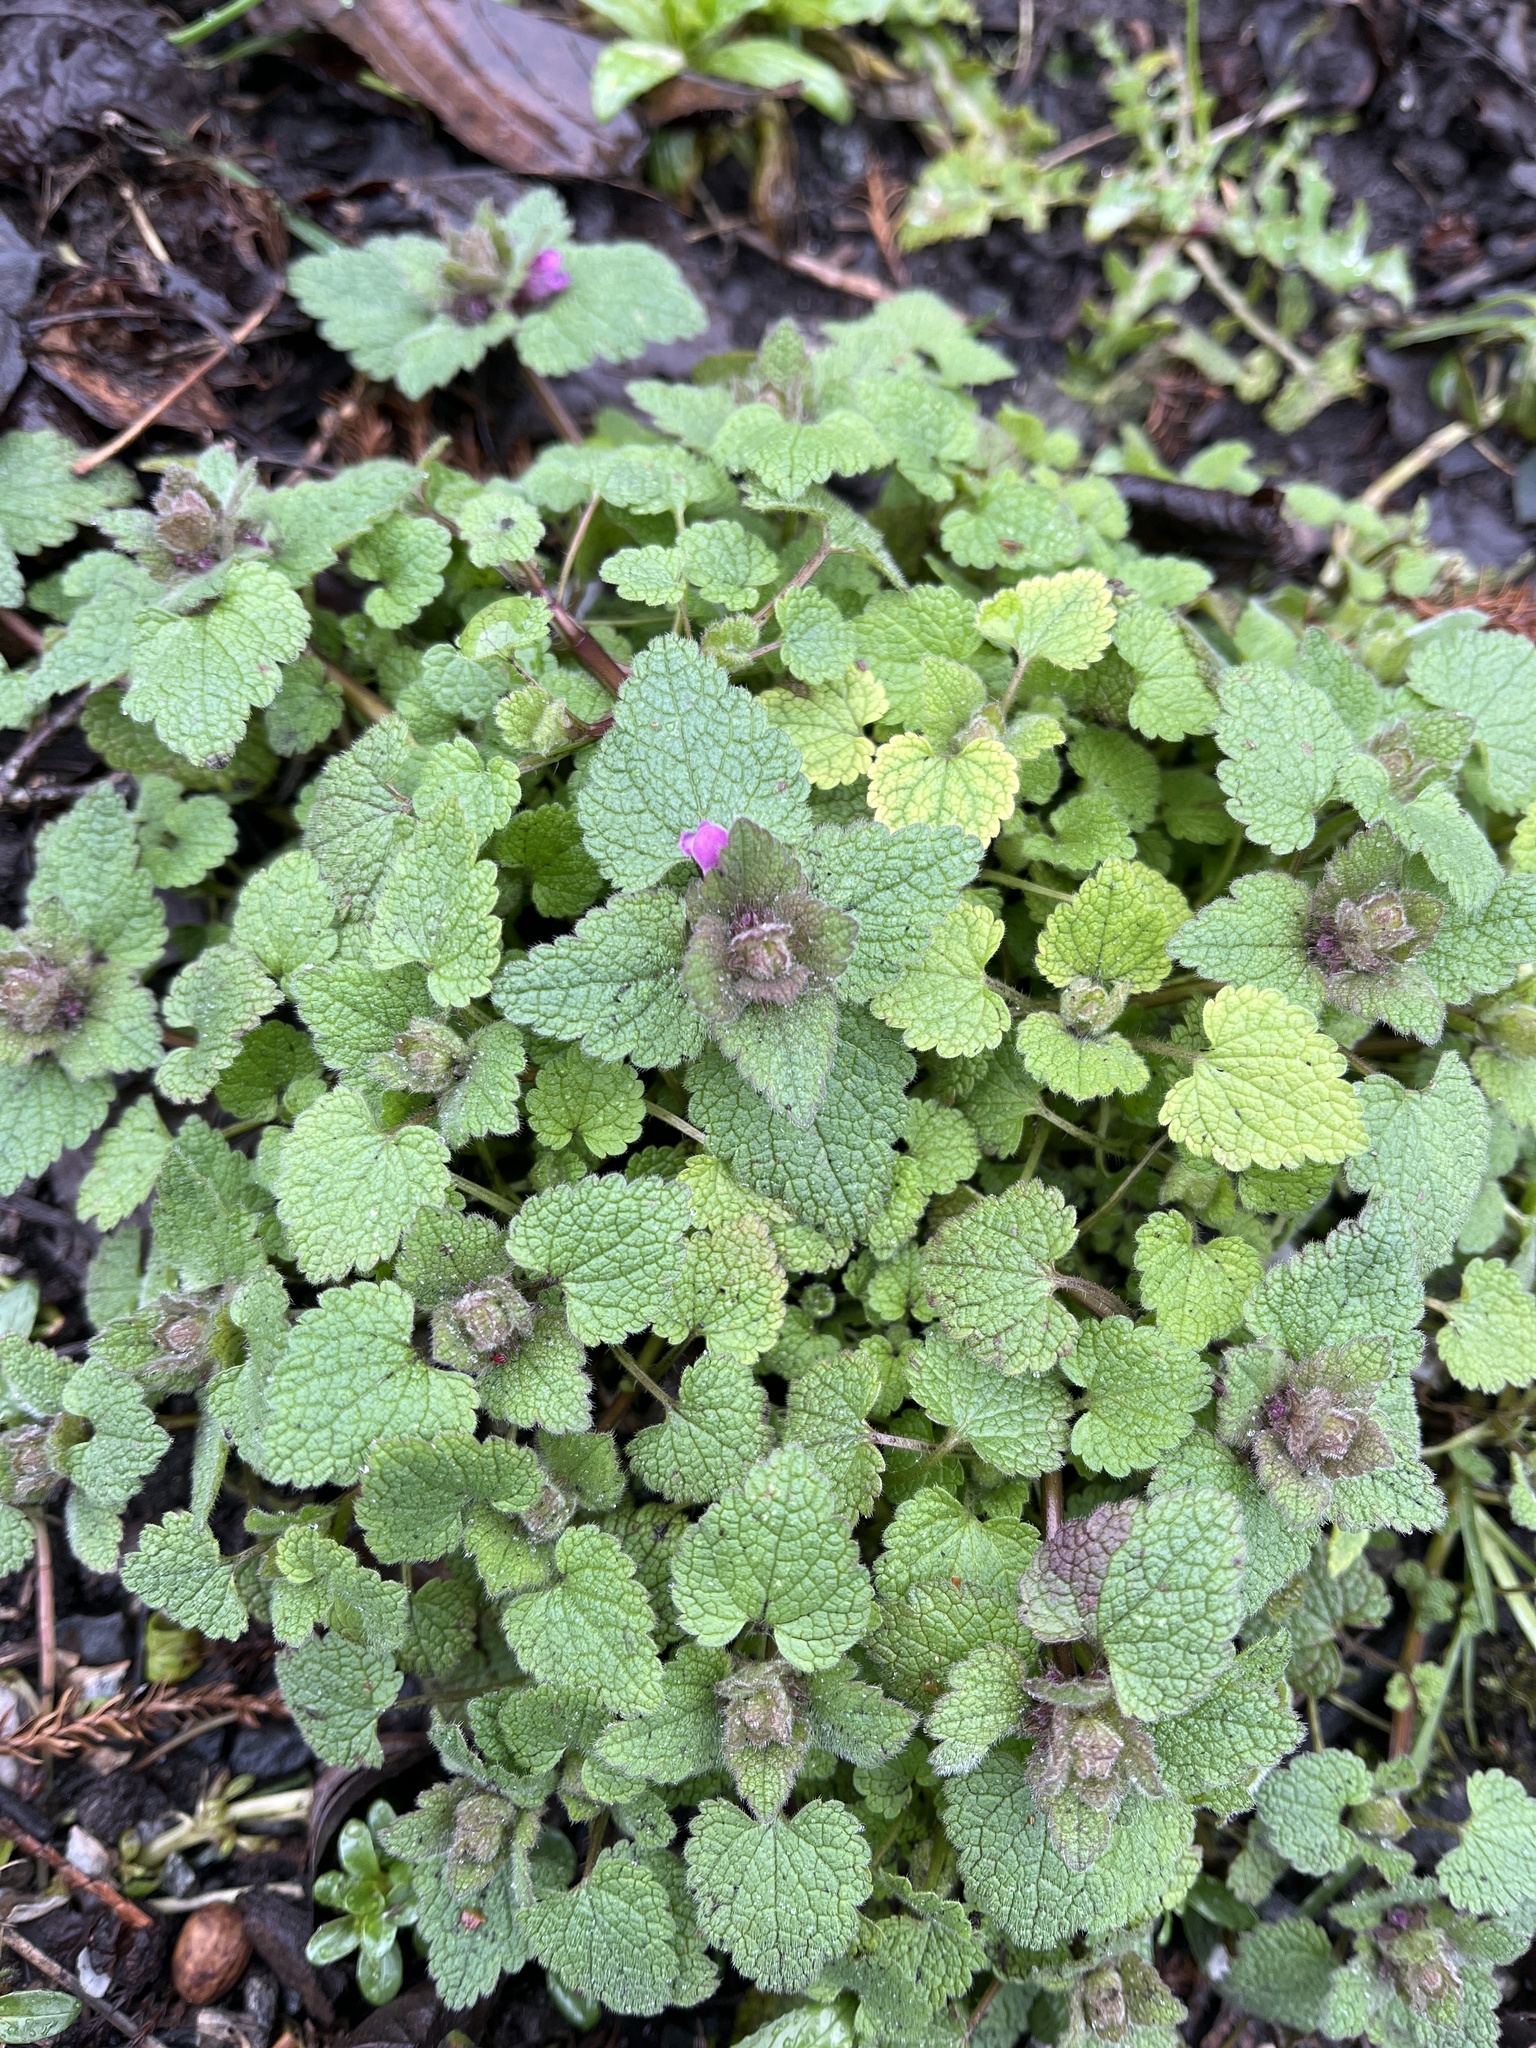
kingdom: Plantae
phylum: Tracheophyta
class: Magnoliopsida
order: Lamiales
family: Lamiaceae
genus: Lamium
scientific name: Lamium purpureum
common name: Red dead-nettle
